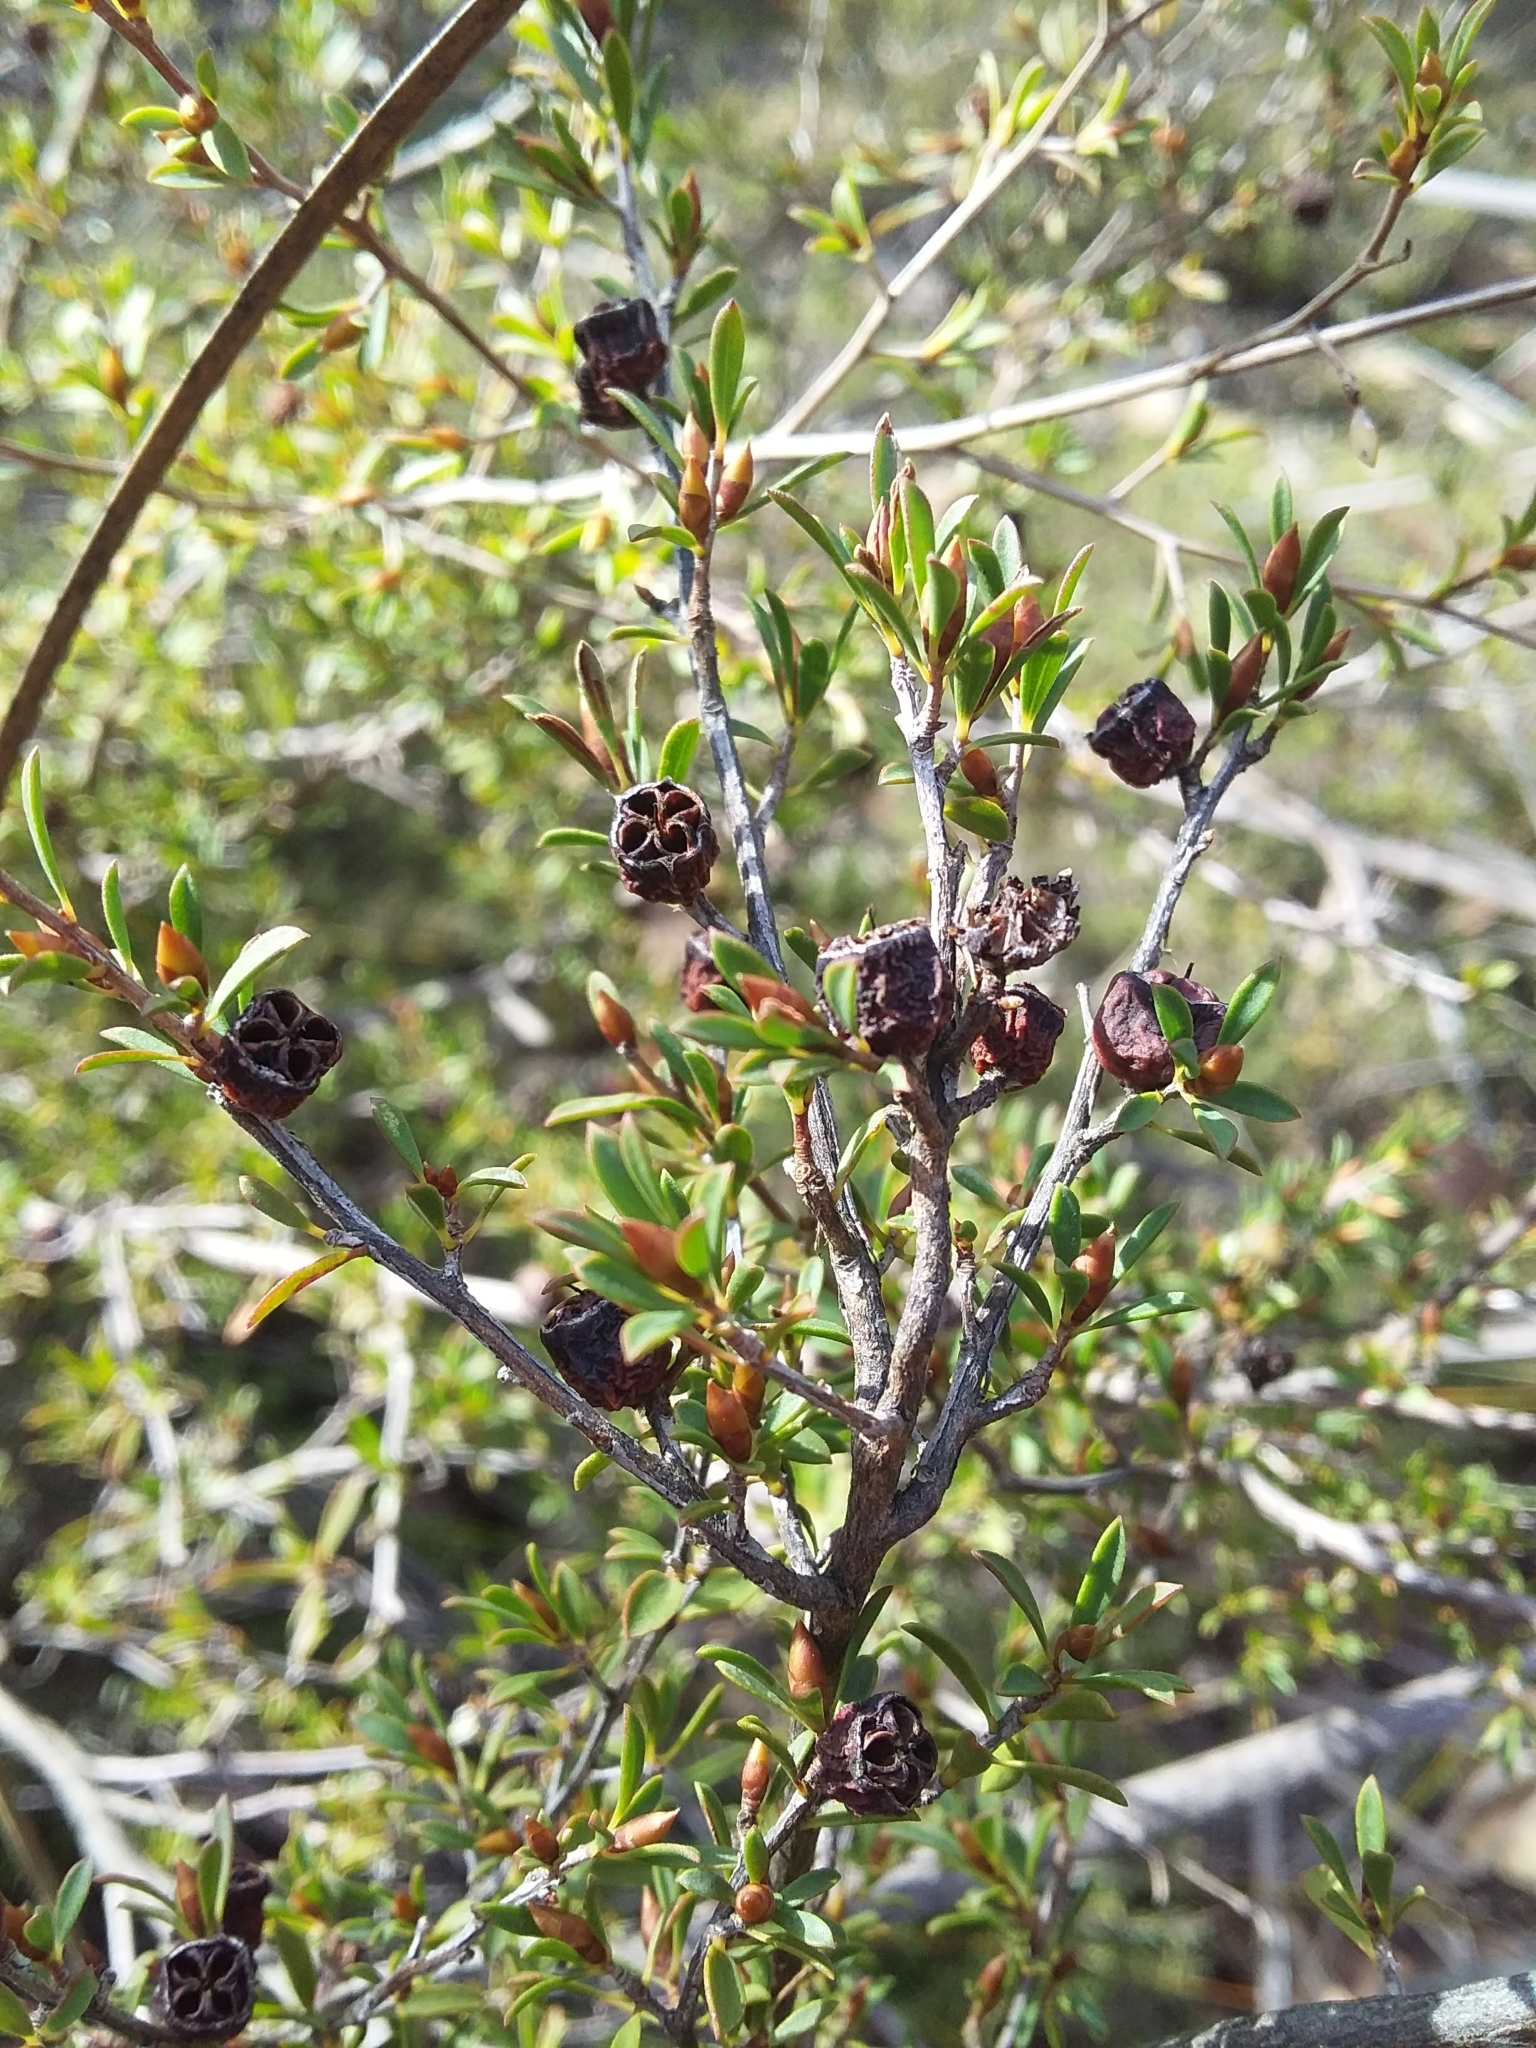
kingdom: Plantae
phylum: Tracheophyta
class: Magnoliopsida
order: Myrtales
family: Myrtaceae
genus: Leptospermum
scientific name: Leptospermum myrsinoides
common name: Heath teatree
